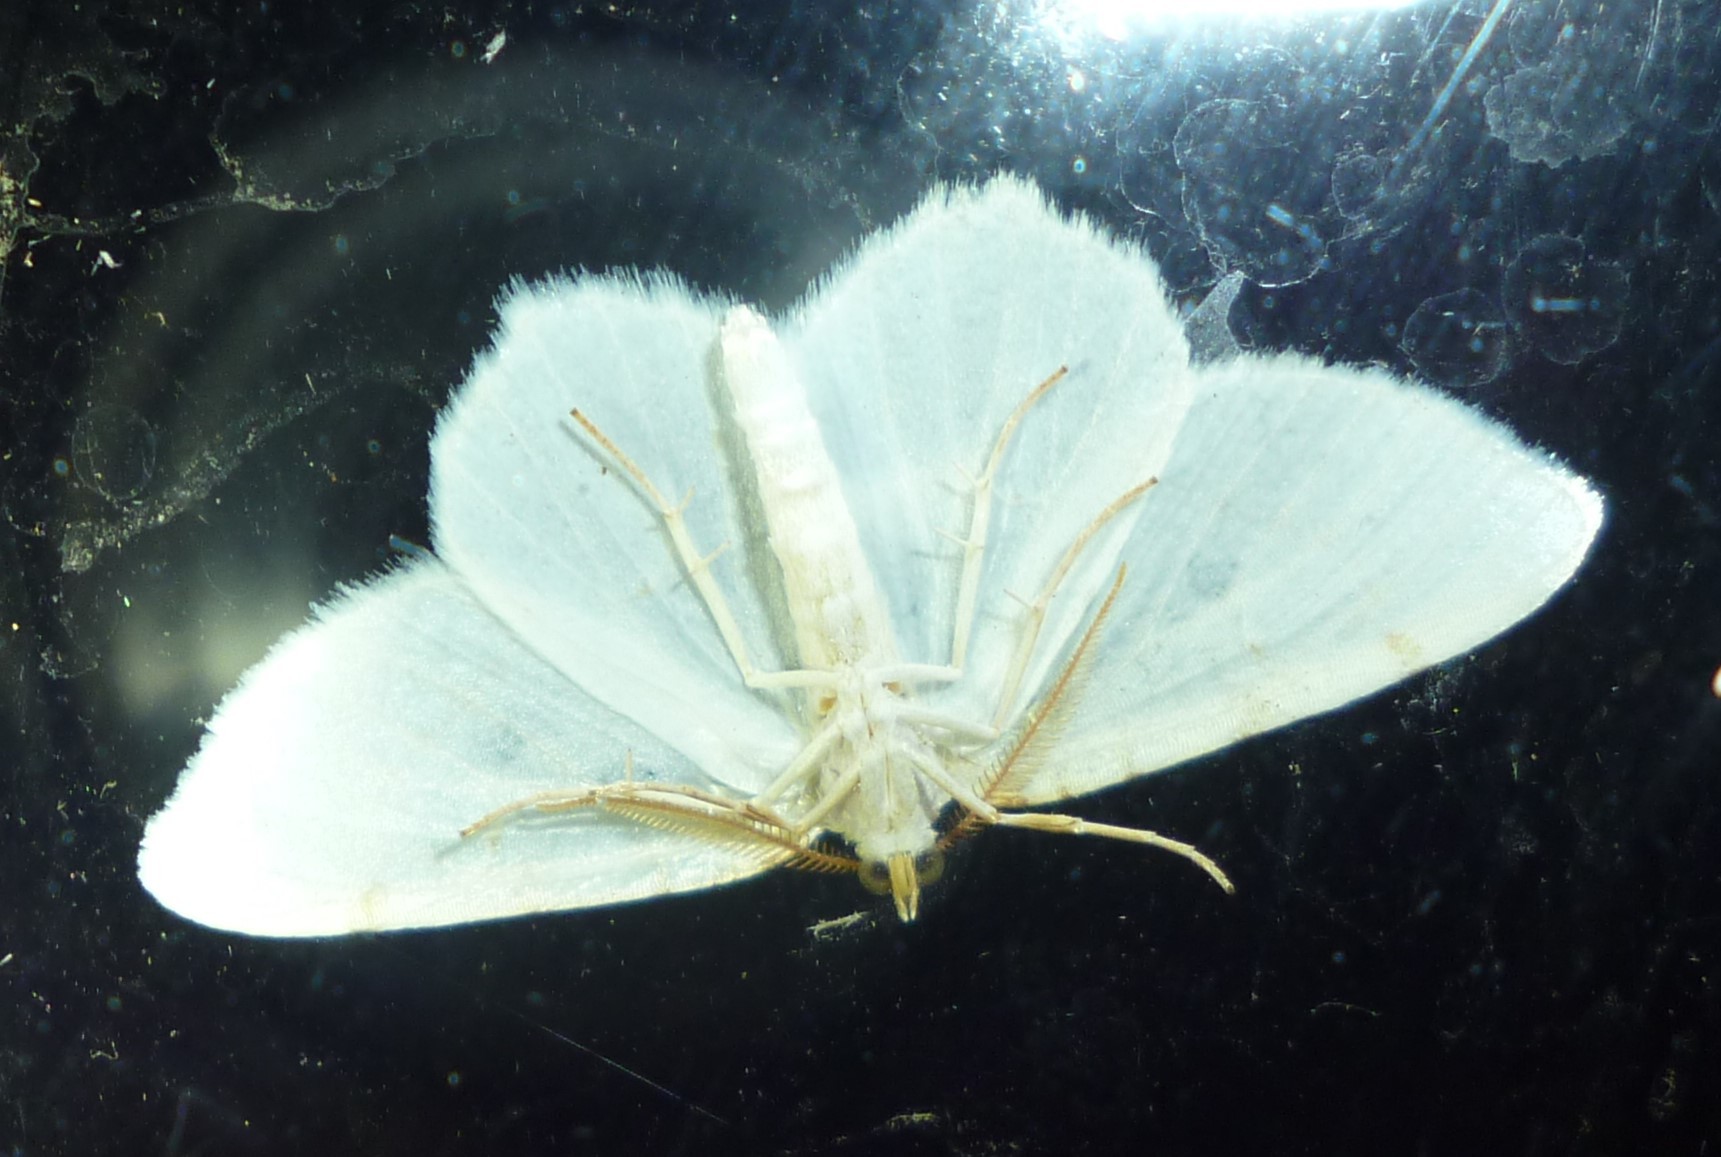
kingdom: Animalia
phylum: Arthropoda
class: Insecta
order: Lepidoptera
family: Geometridae
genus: Macaria
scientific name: Macaria pustularia
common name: Lesser maple spanworm moth
